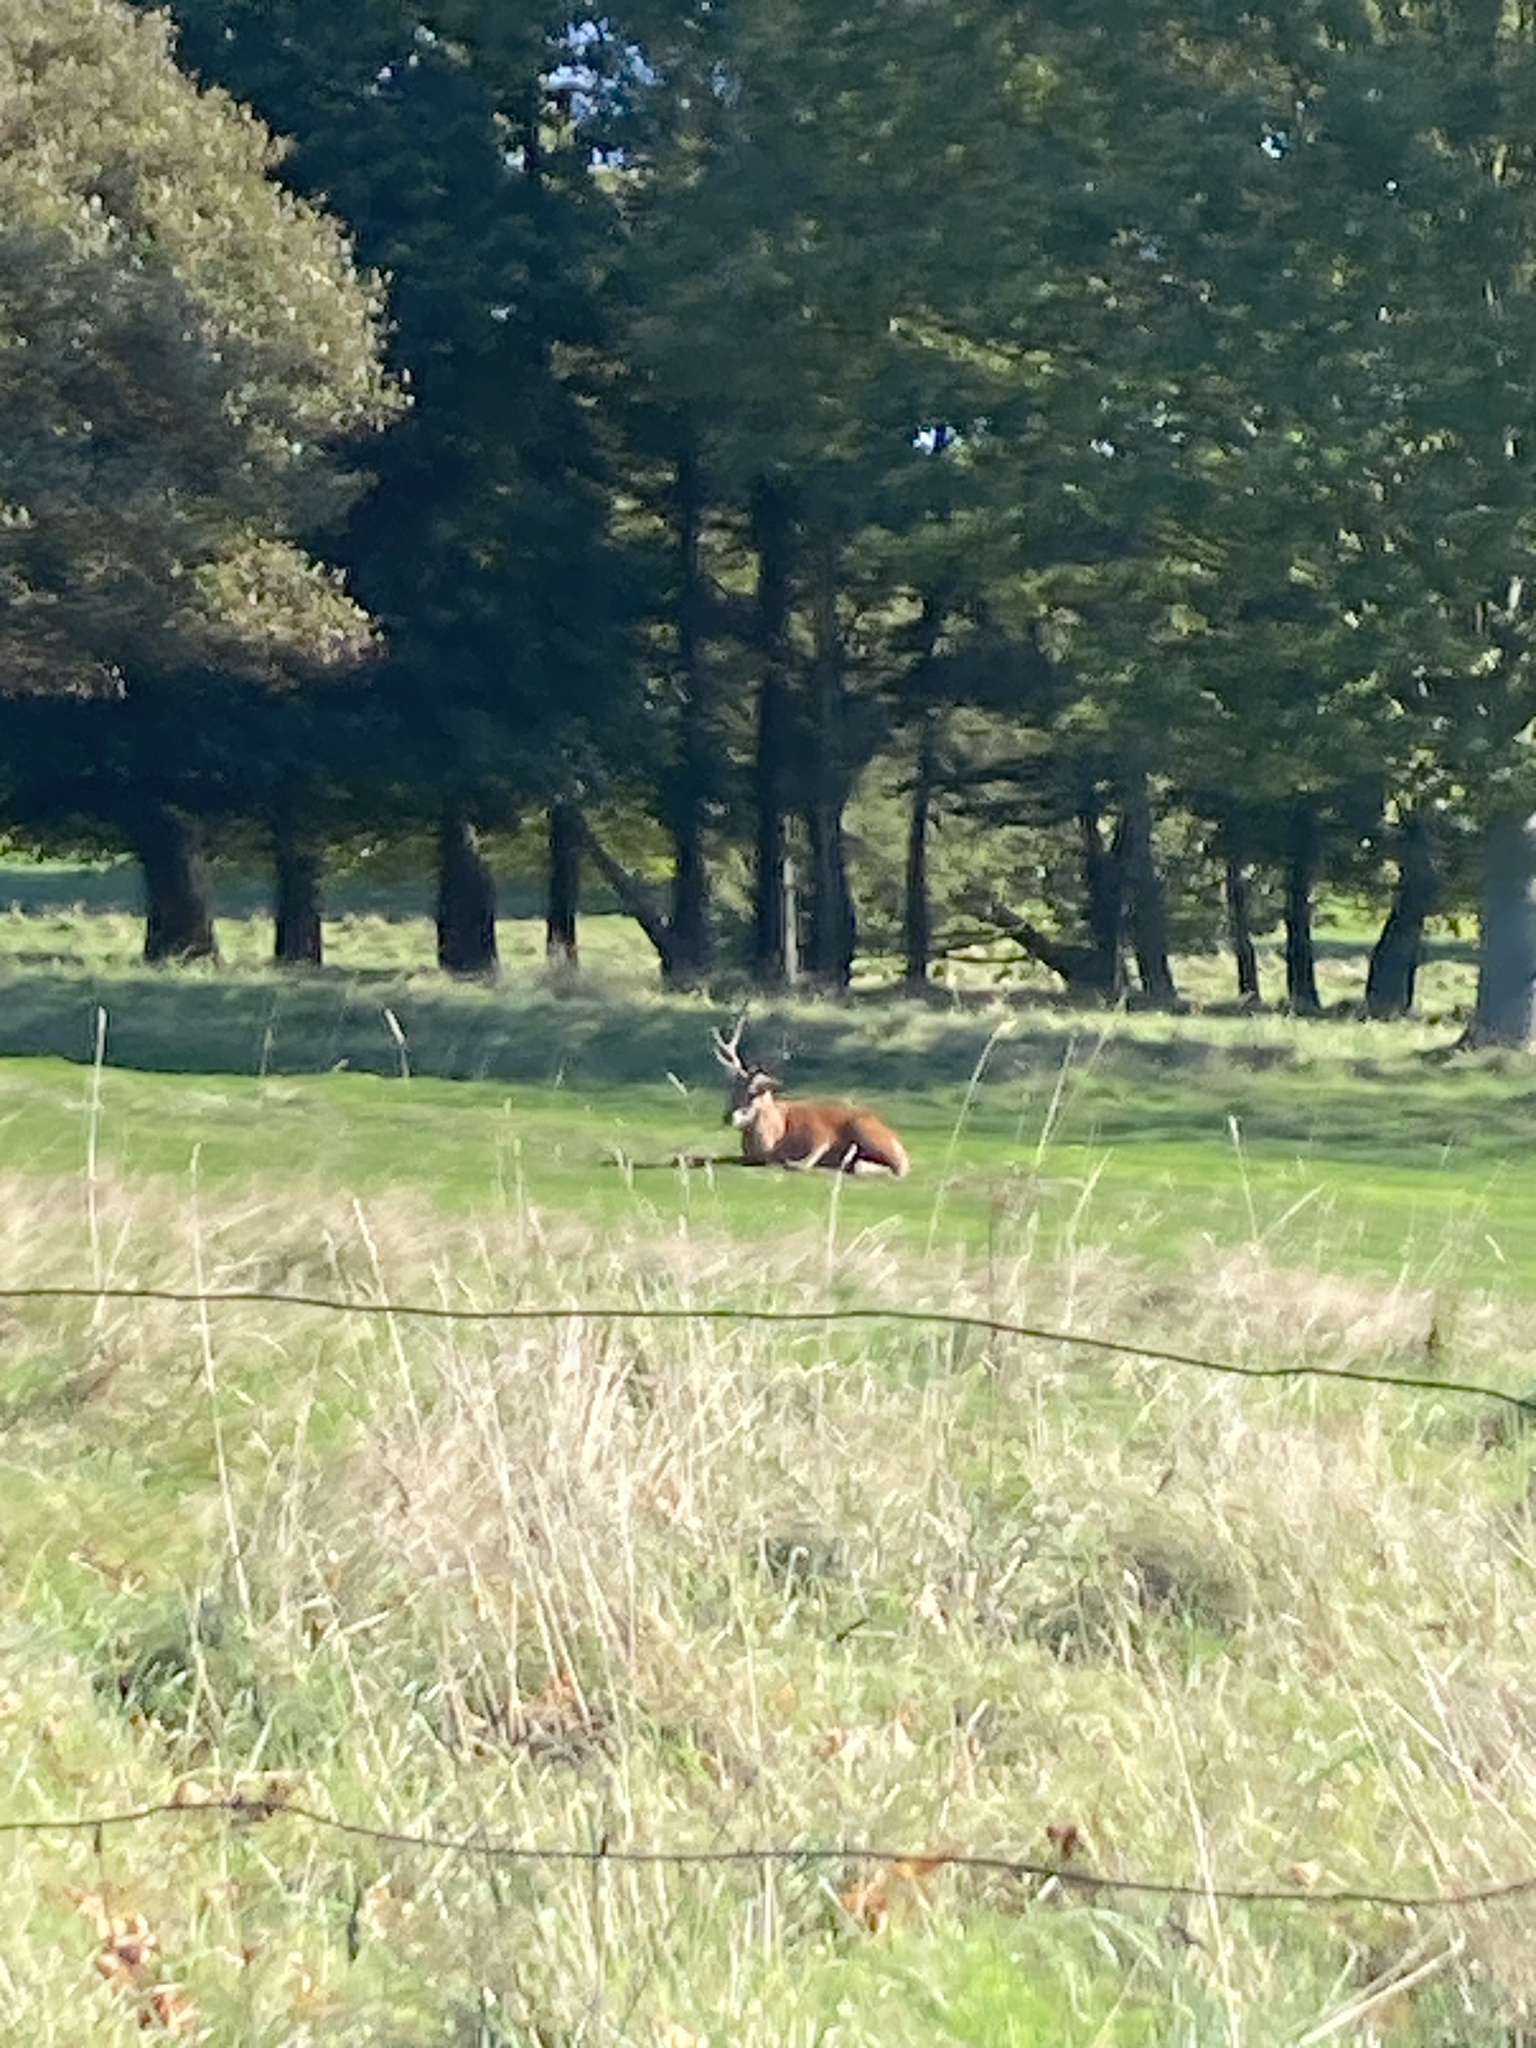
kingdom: Animalia
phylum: Chordata
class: Mammalia
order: Artiodactyla
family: Cervidae
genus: Cervus
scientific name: Cervus elaphus
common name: Red deer
